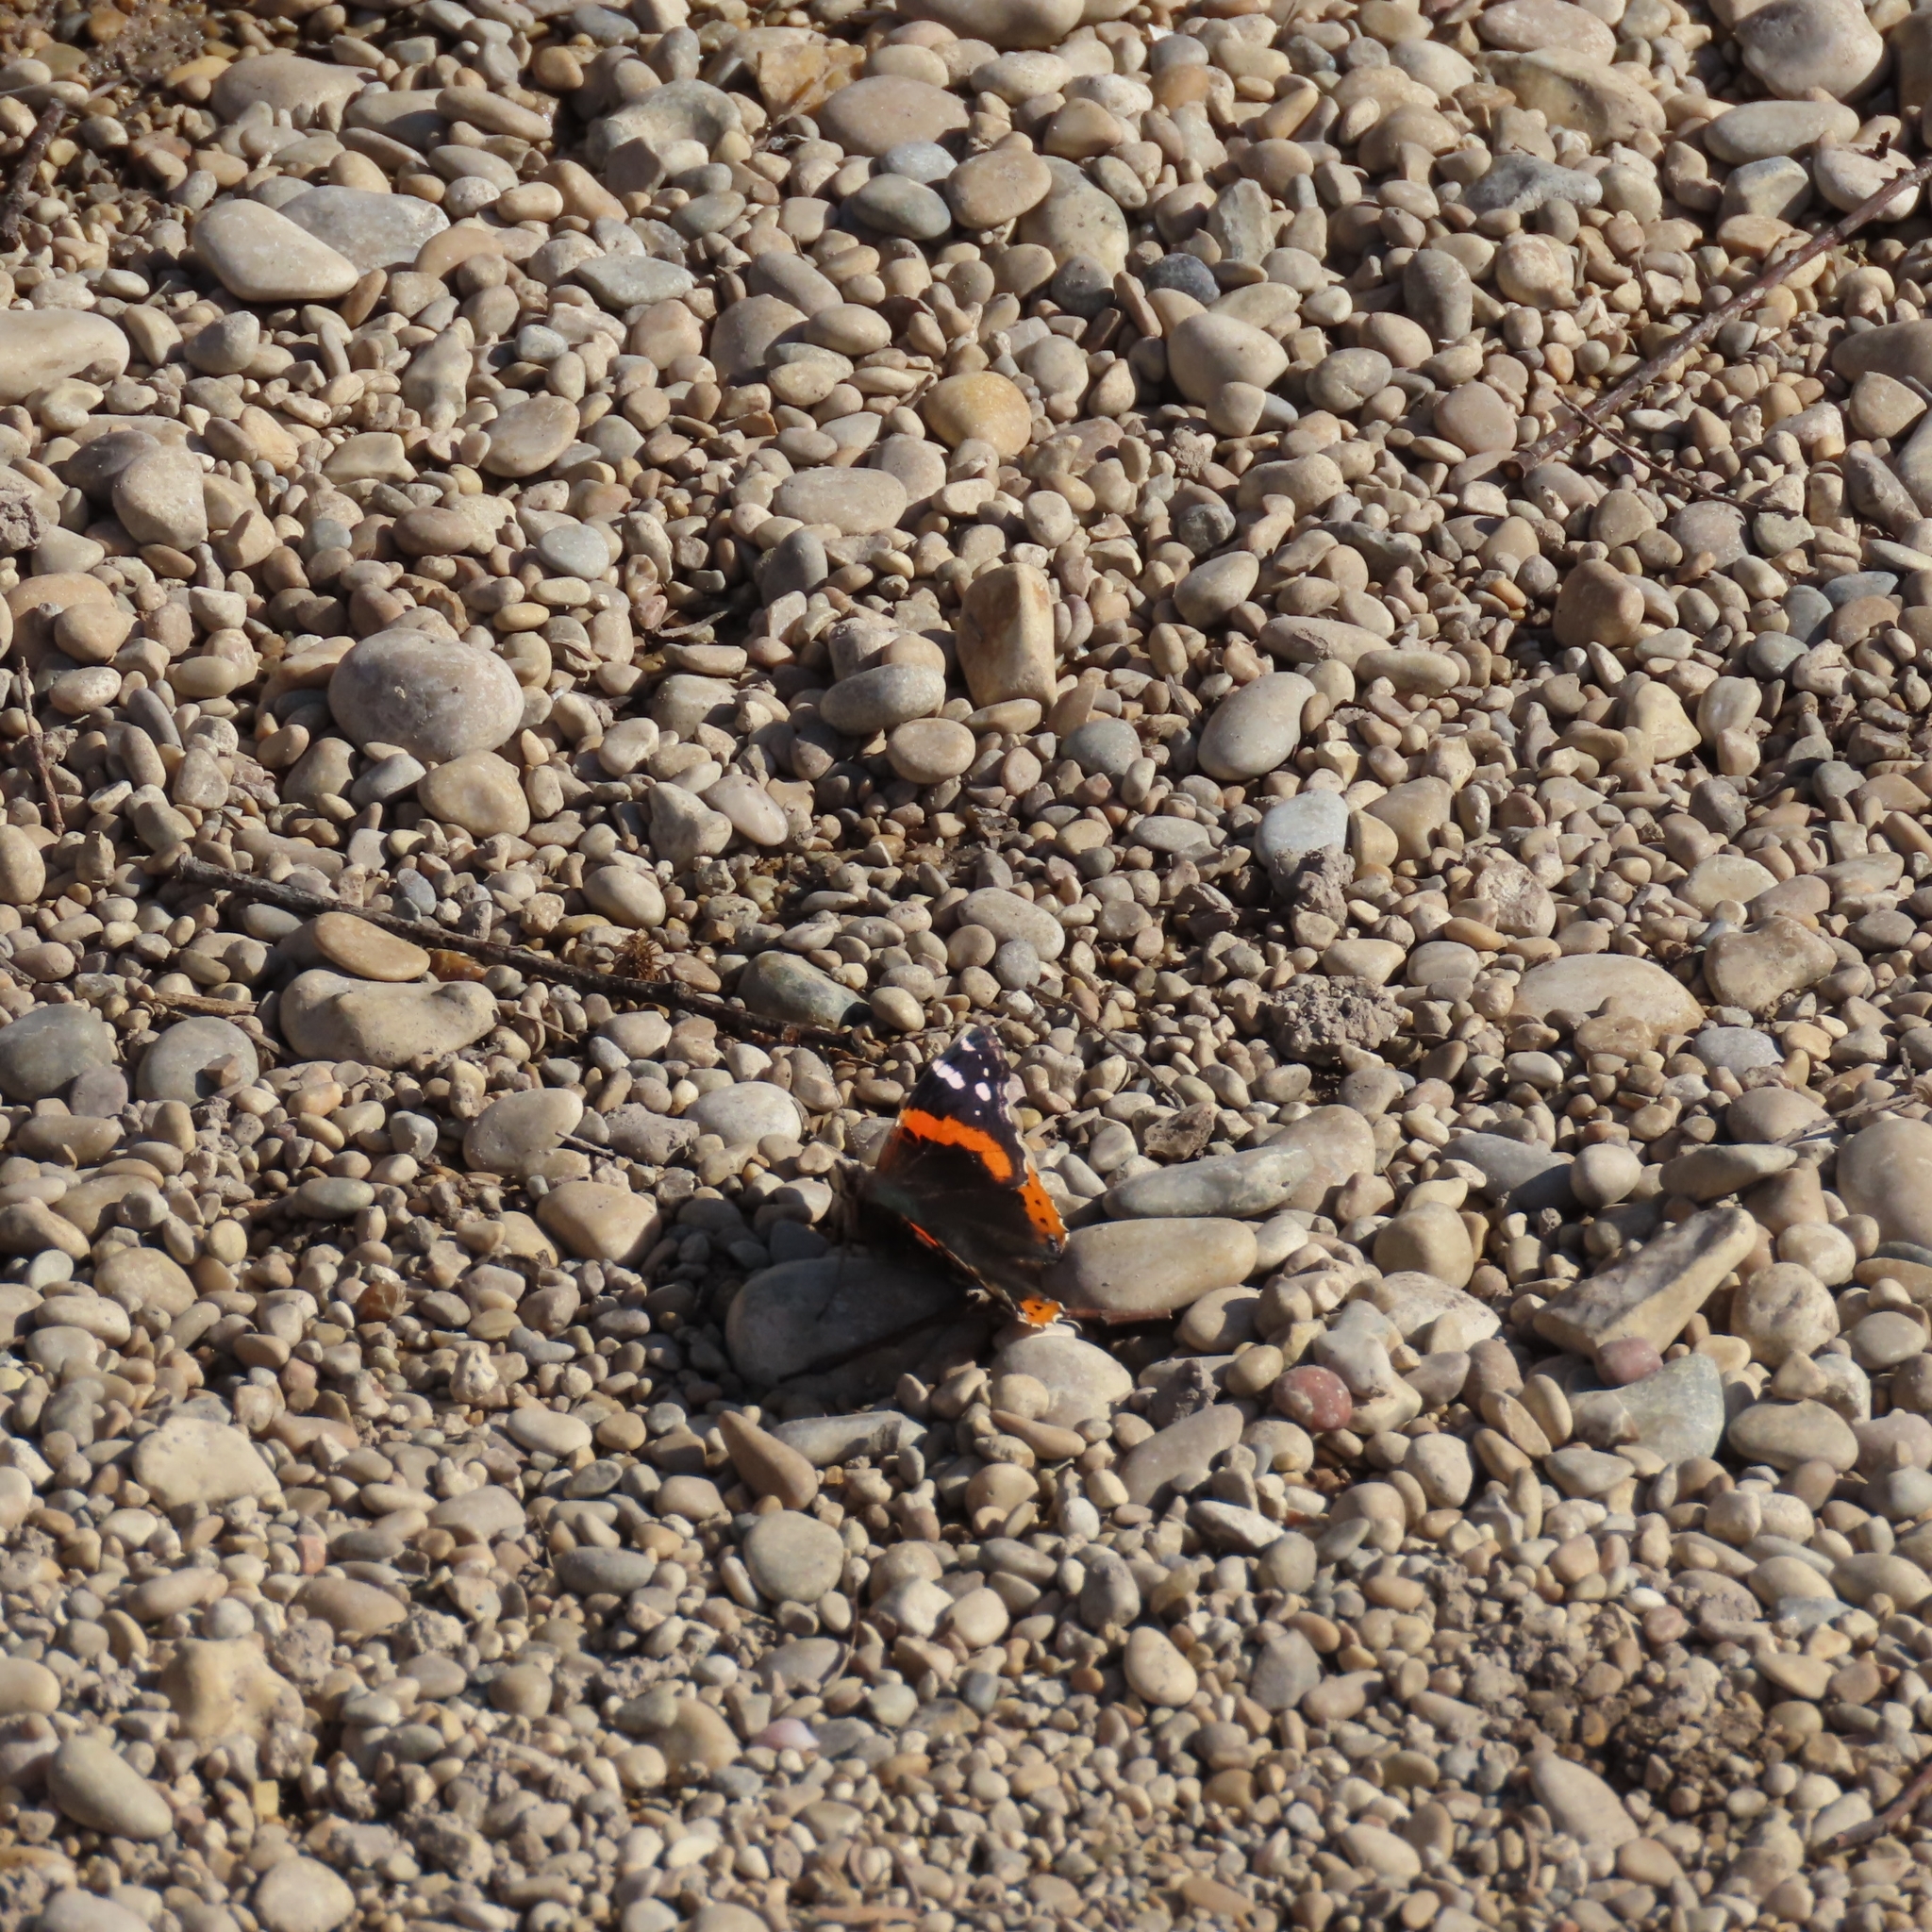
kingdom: Animalia
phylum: Arthropoda
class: Insecta
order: Lepidoptera
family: Nymphalidae
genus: Vanessa
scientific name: Vanessa atalanta
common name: Red admiral
